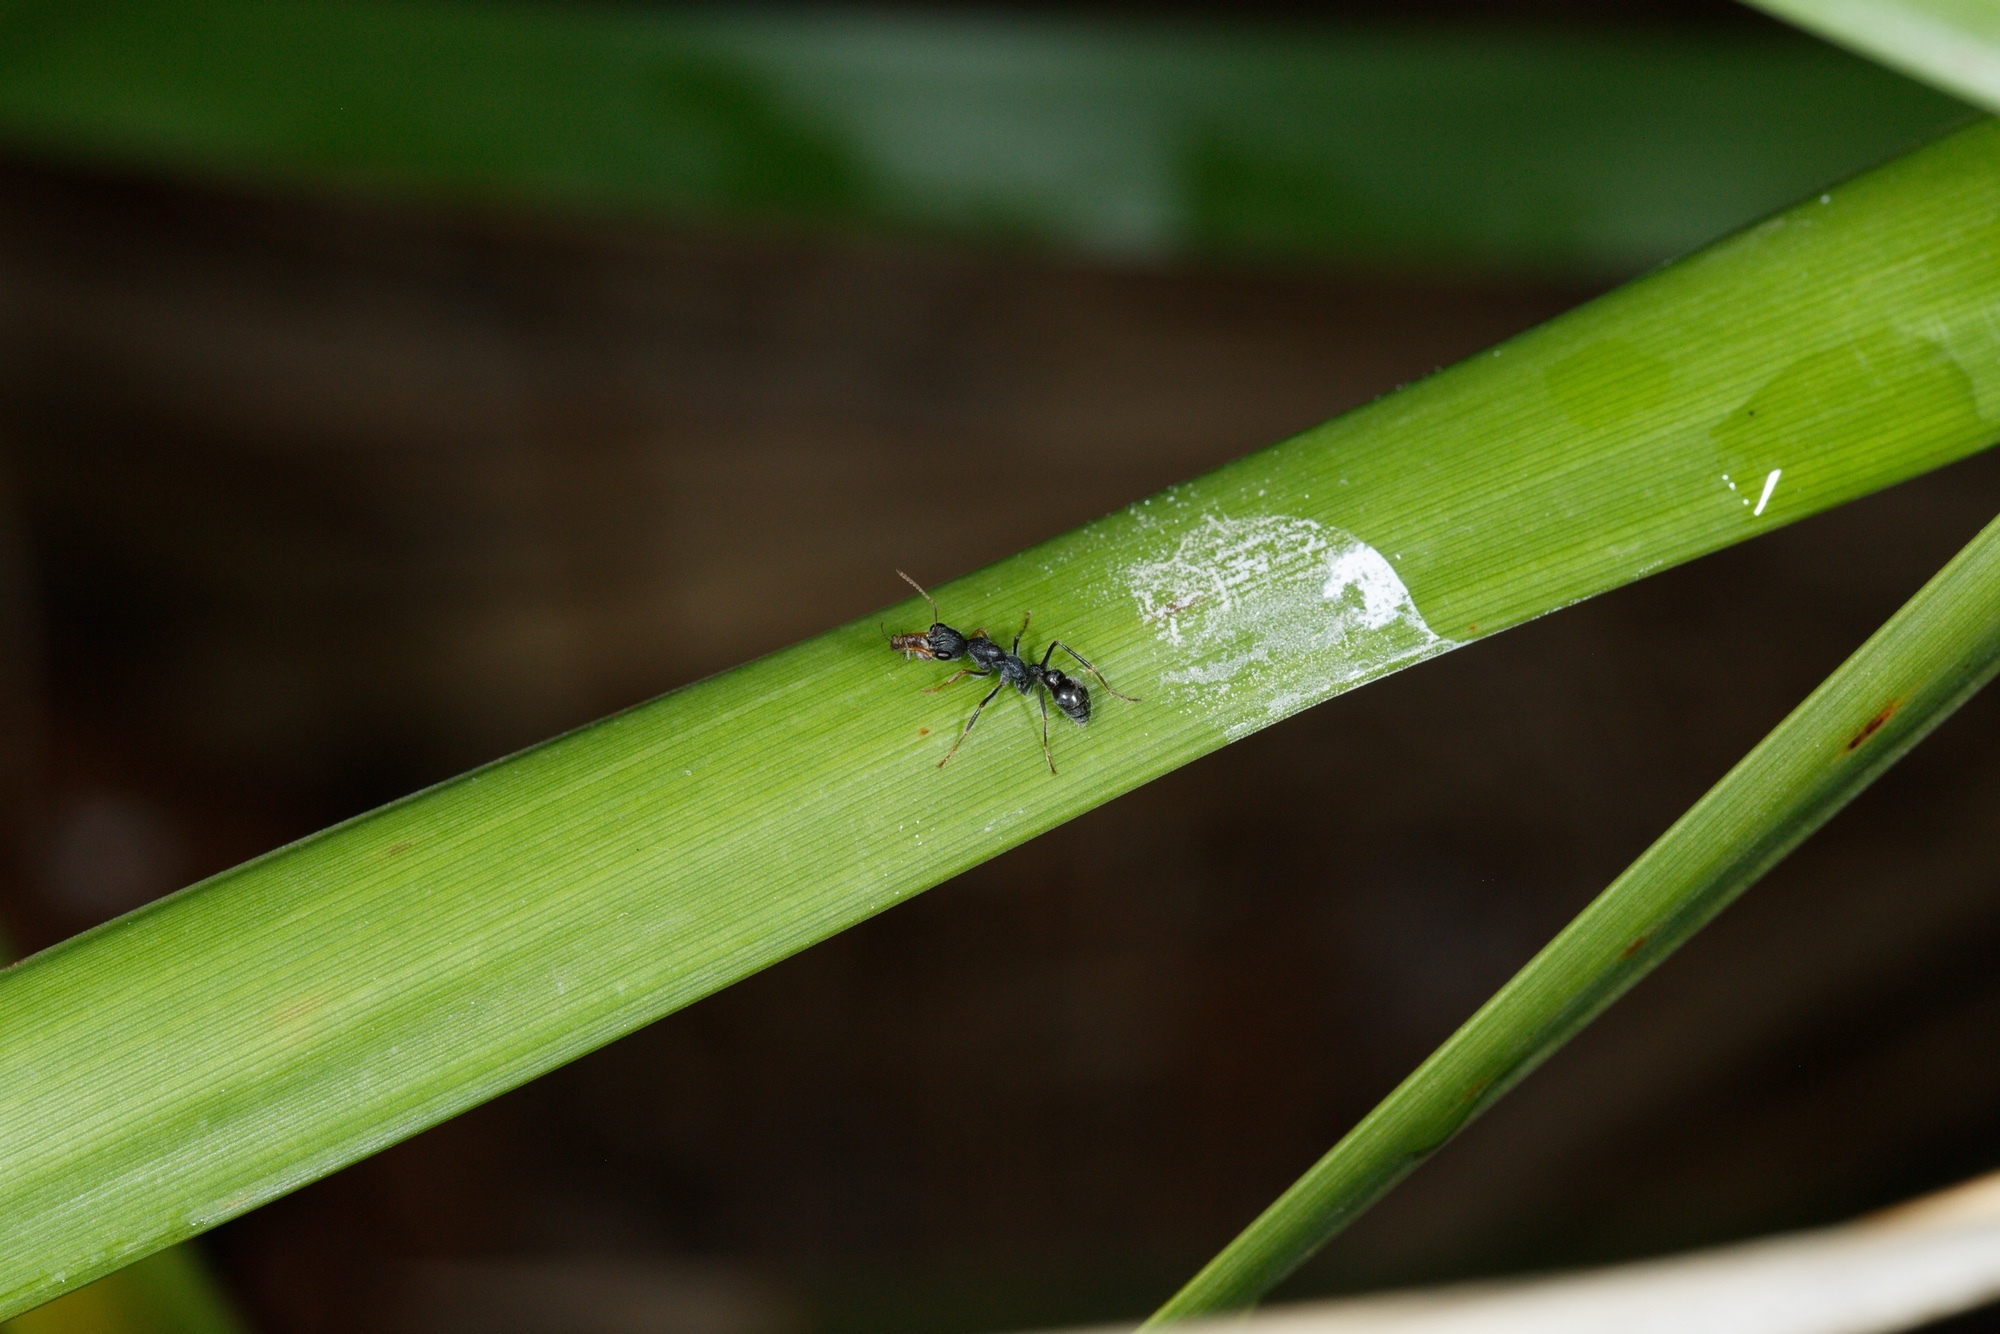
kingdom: Animalia
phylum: Arthropoda
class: Insecta
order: Hymenoptera
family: Formicidae
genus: Myrmecia
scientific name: Myrmecia urens
